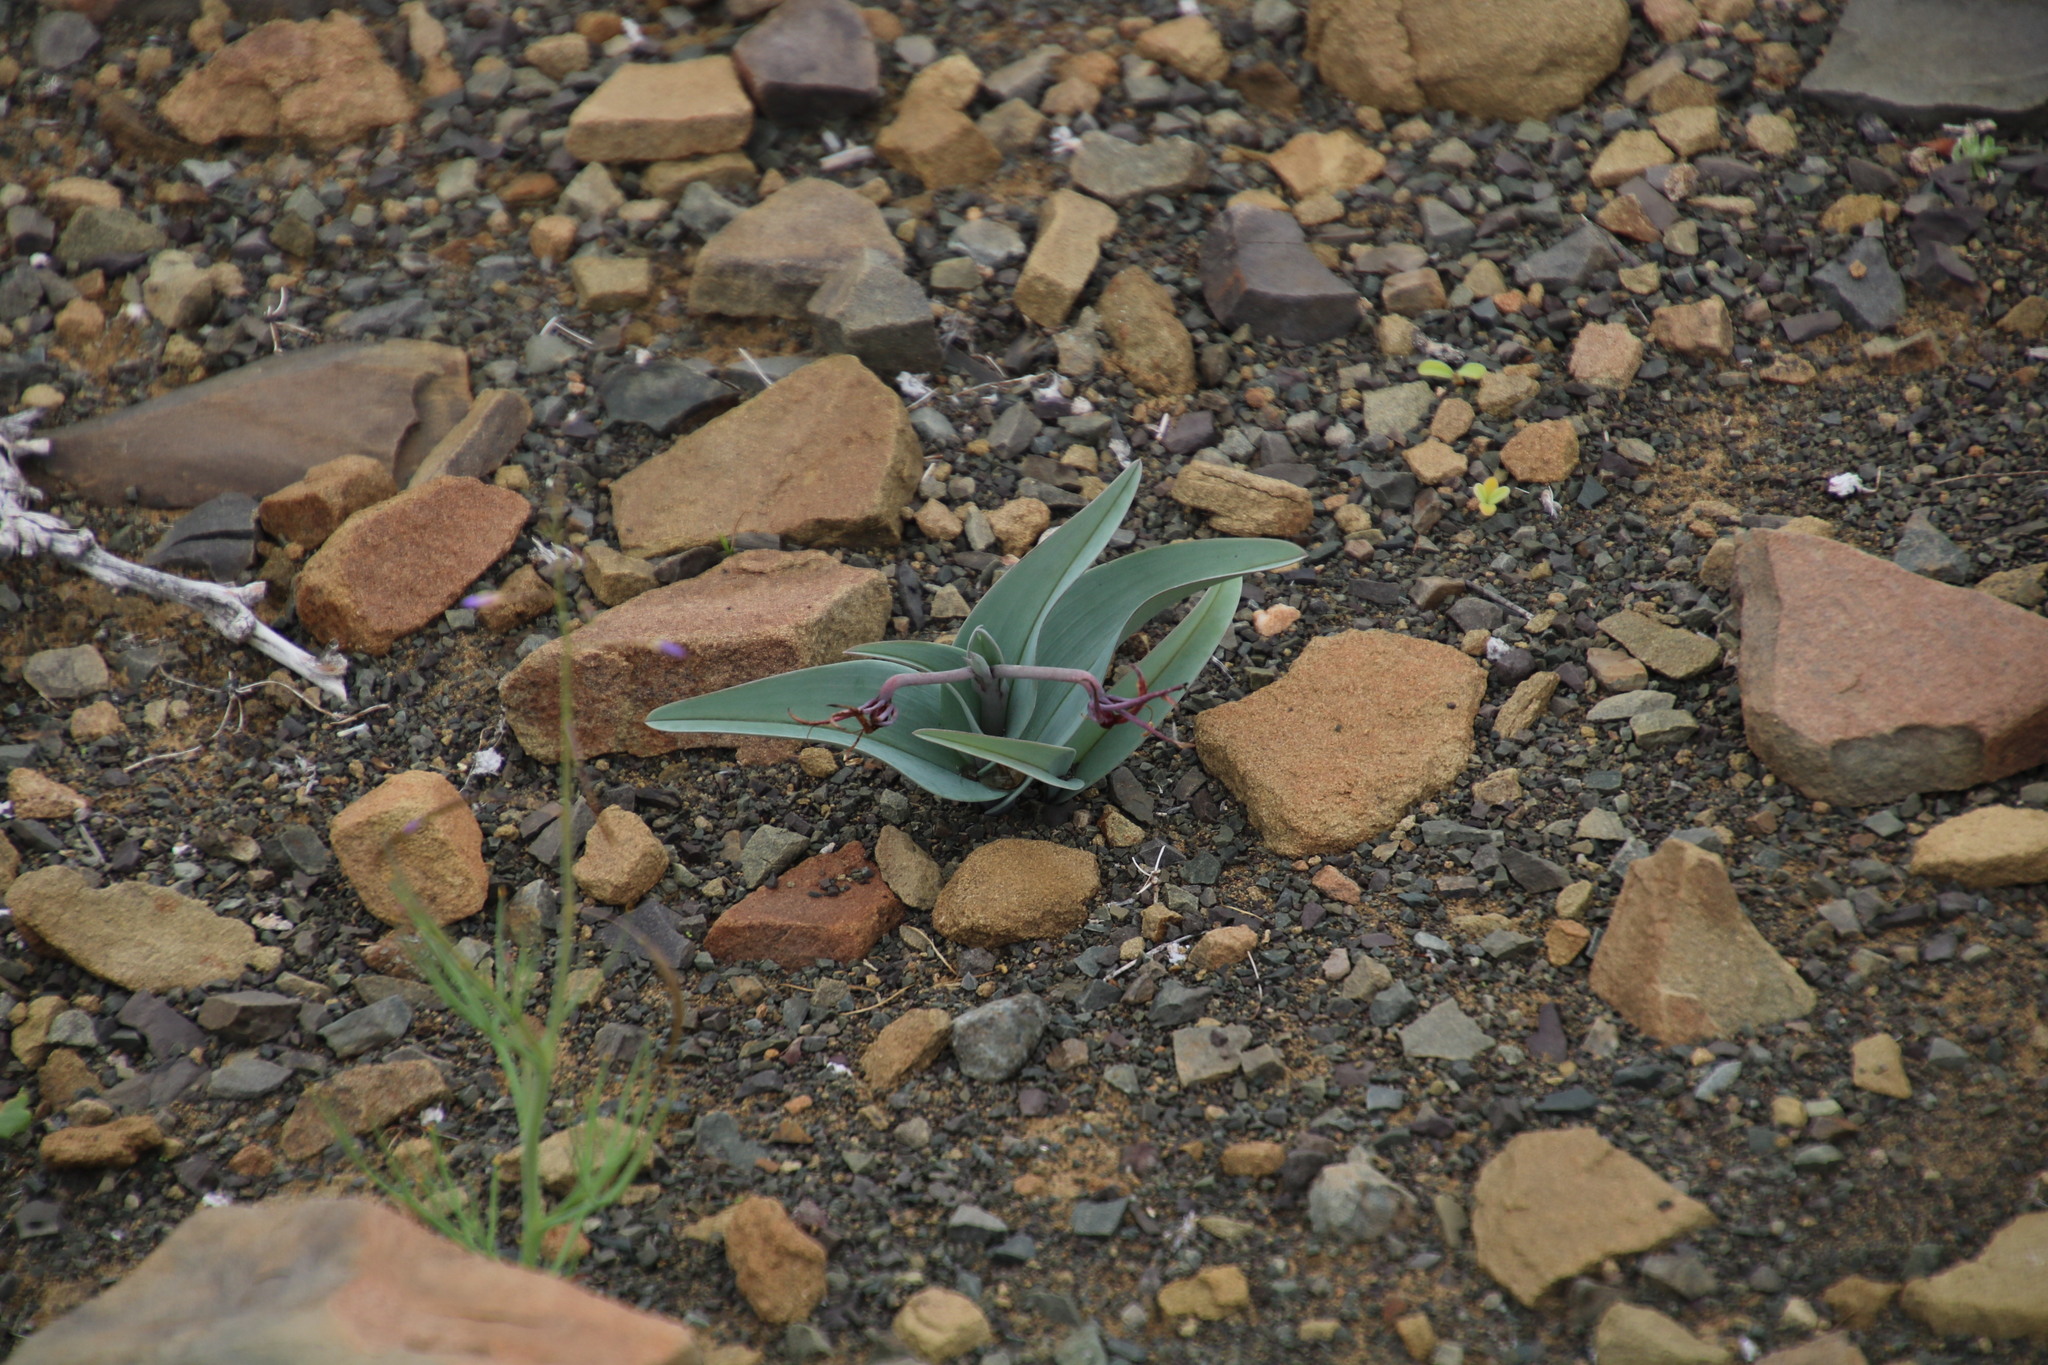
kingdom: Plantae
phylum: Tracheophyta
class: Liliopsida
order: Liliales
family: Colchicaceae
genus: Ornithoglossum
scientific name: Ornithoglossum undulatum
